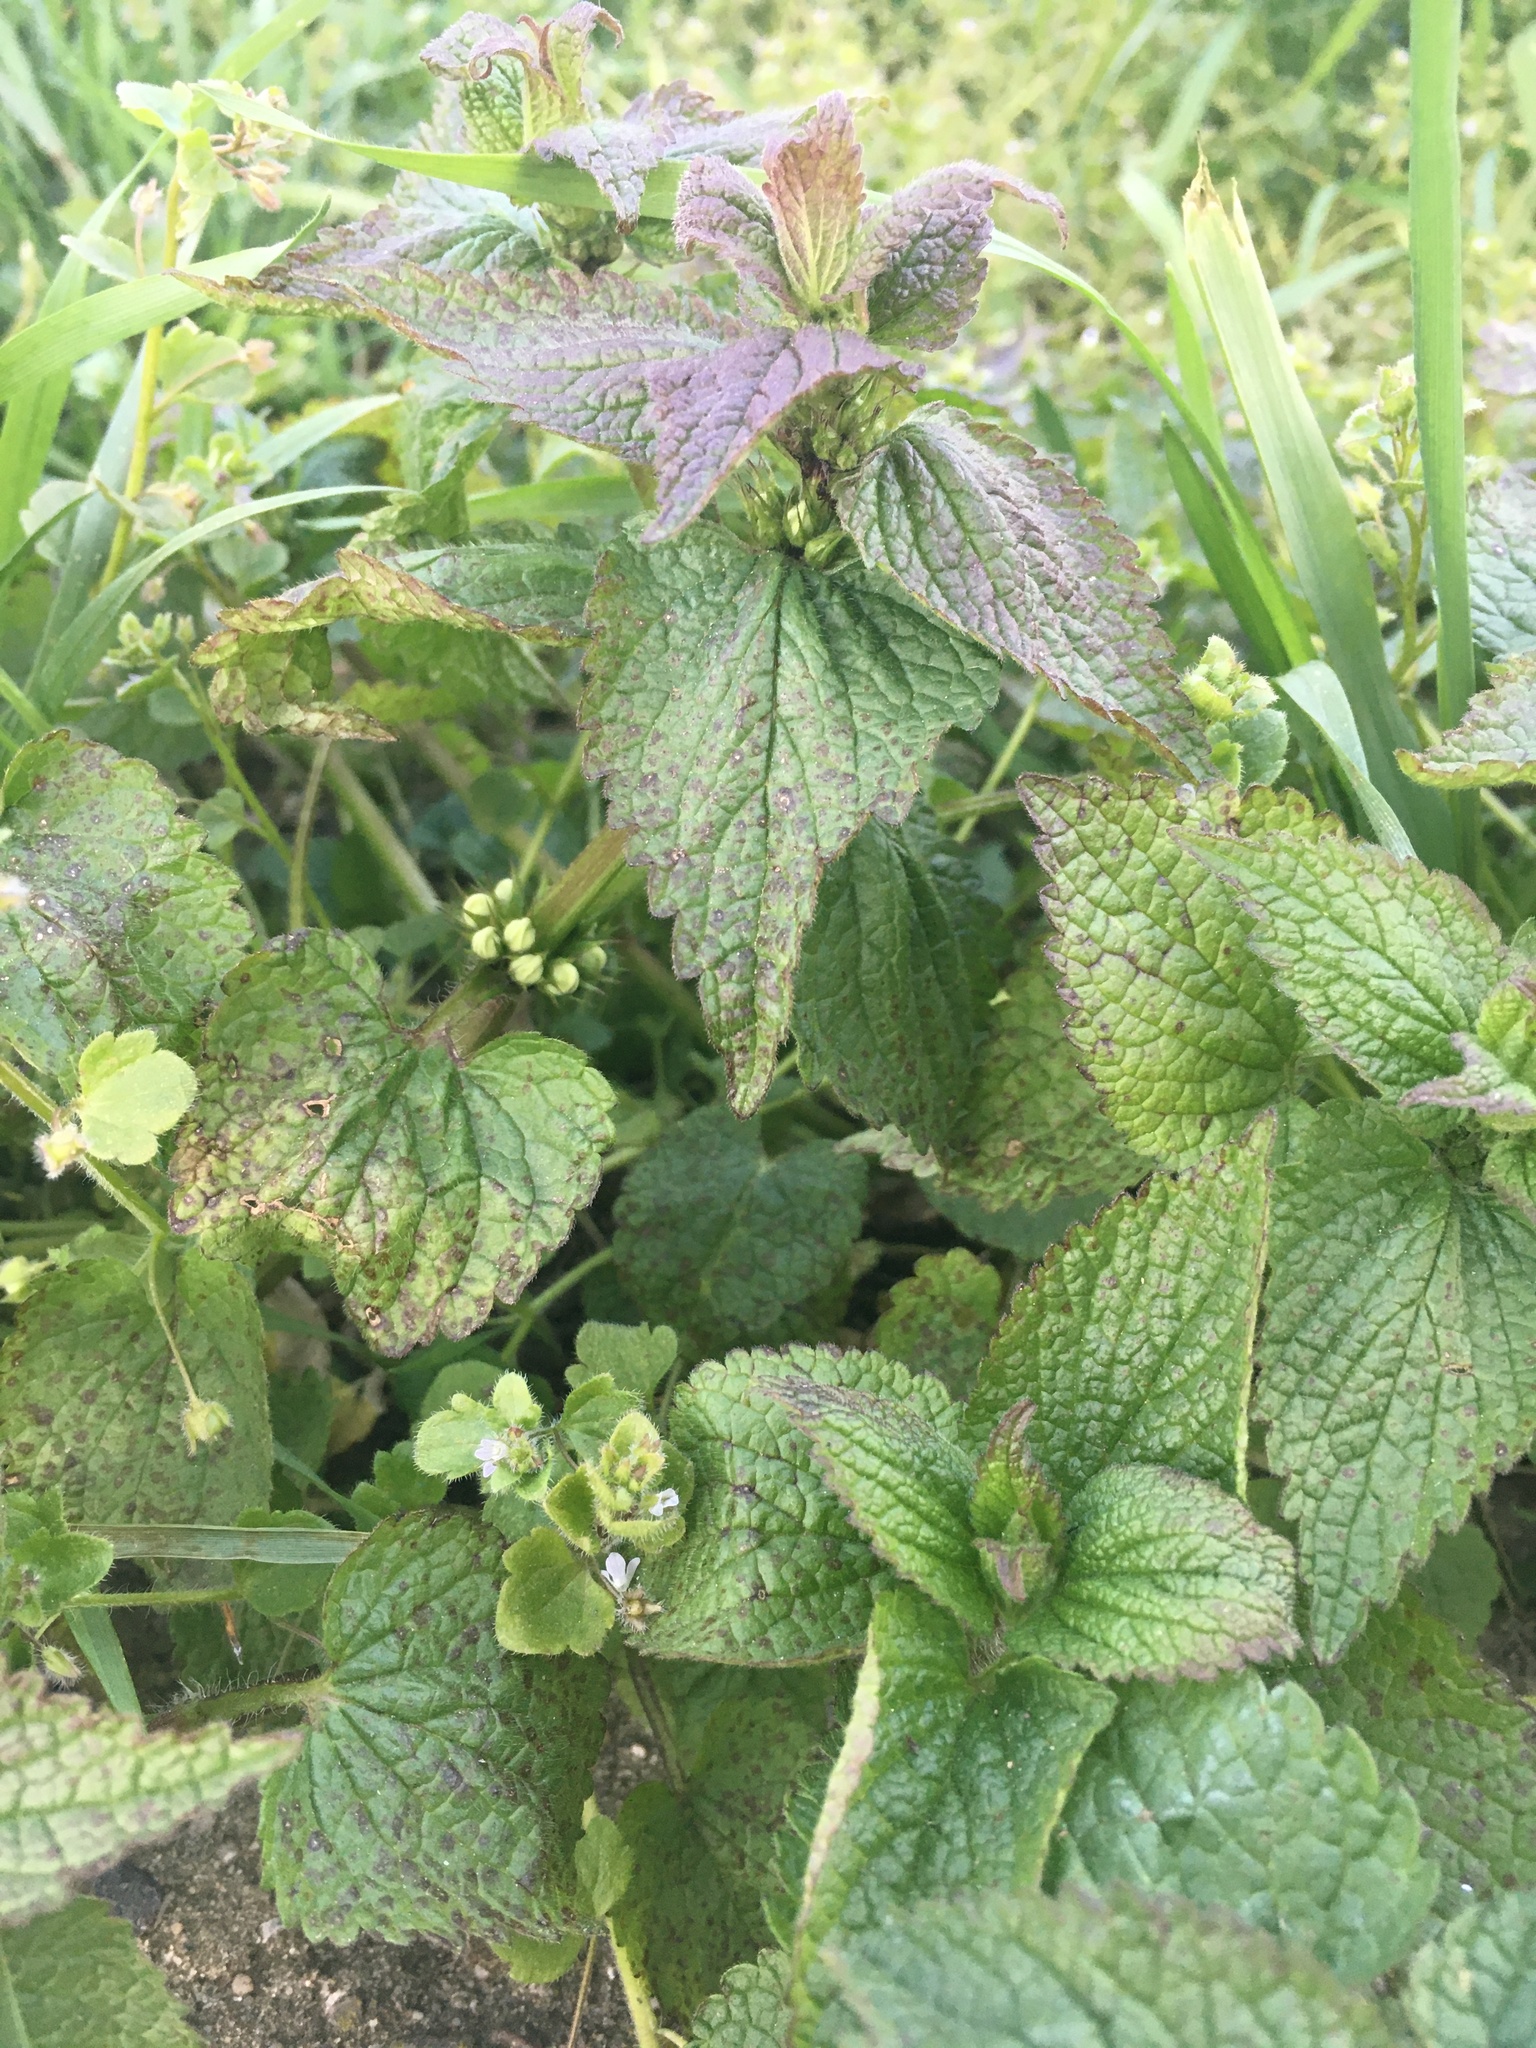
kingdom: Plantae
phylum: Tracheophyta
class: Magnoliopsida
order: Lamiales
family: Lamiaceae
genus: Lamium
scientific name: Lamium album
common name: White dead-nettle
